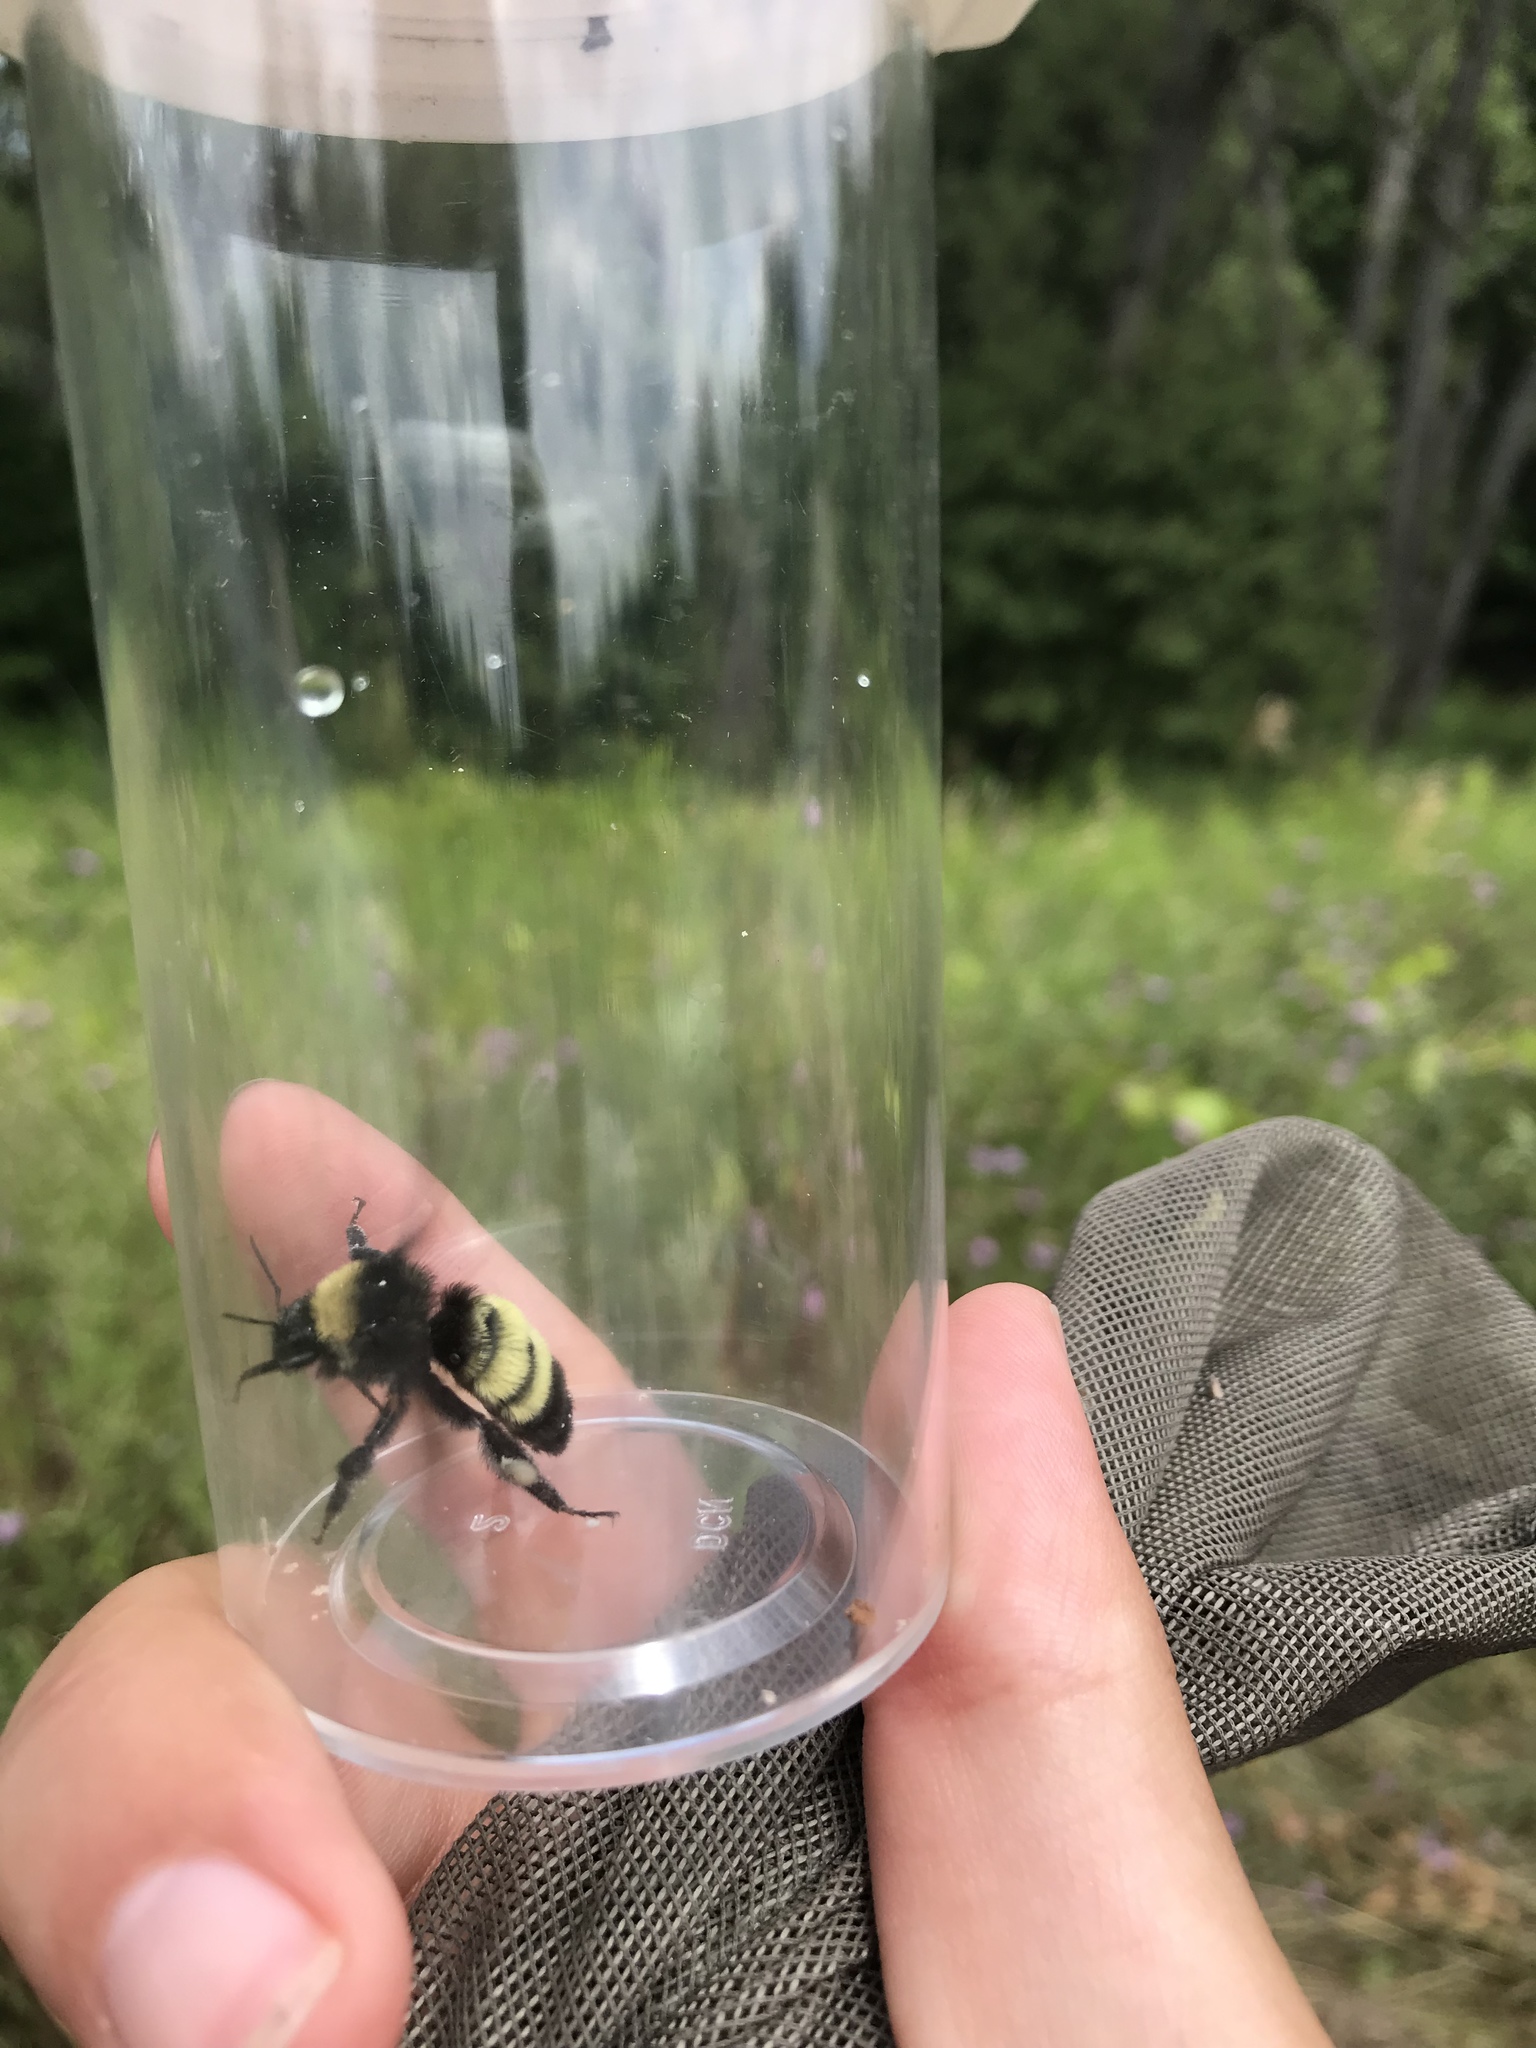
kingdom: Animalia
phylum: Arthropoda
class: Insecta
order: Hymenoptera
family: Apidae
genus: Bombus
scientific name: Bombus pensylvanicus
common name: Bumble bee
